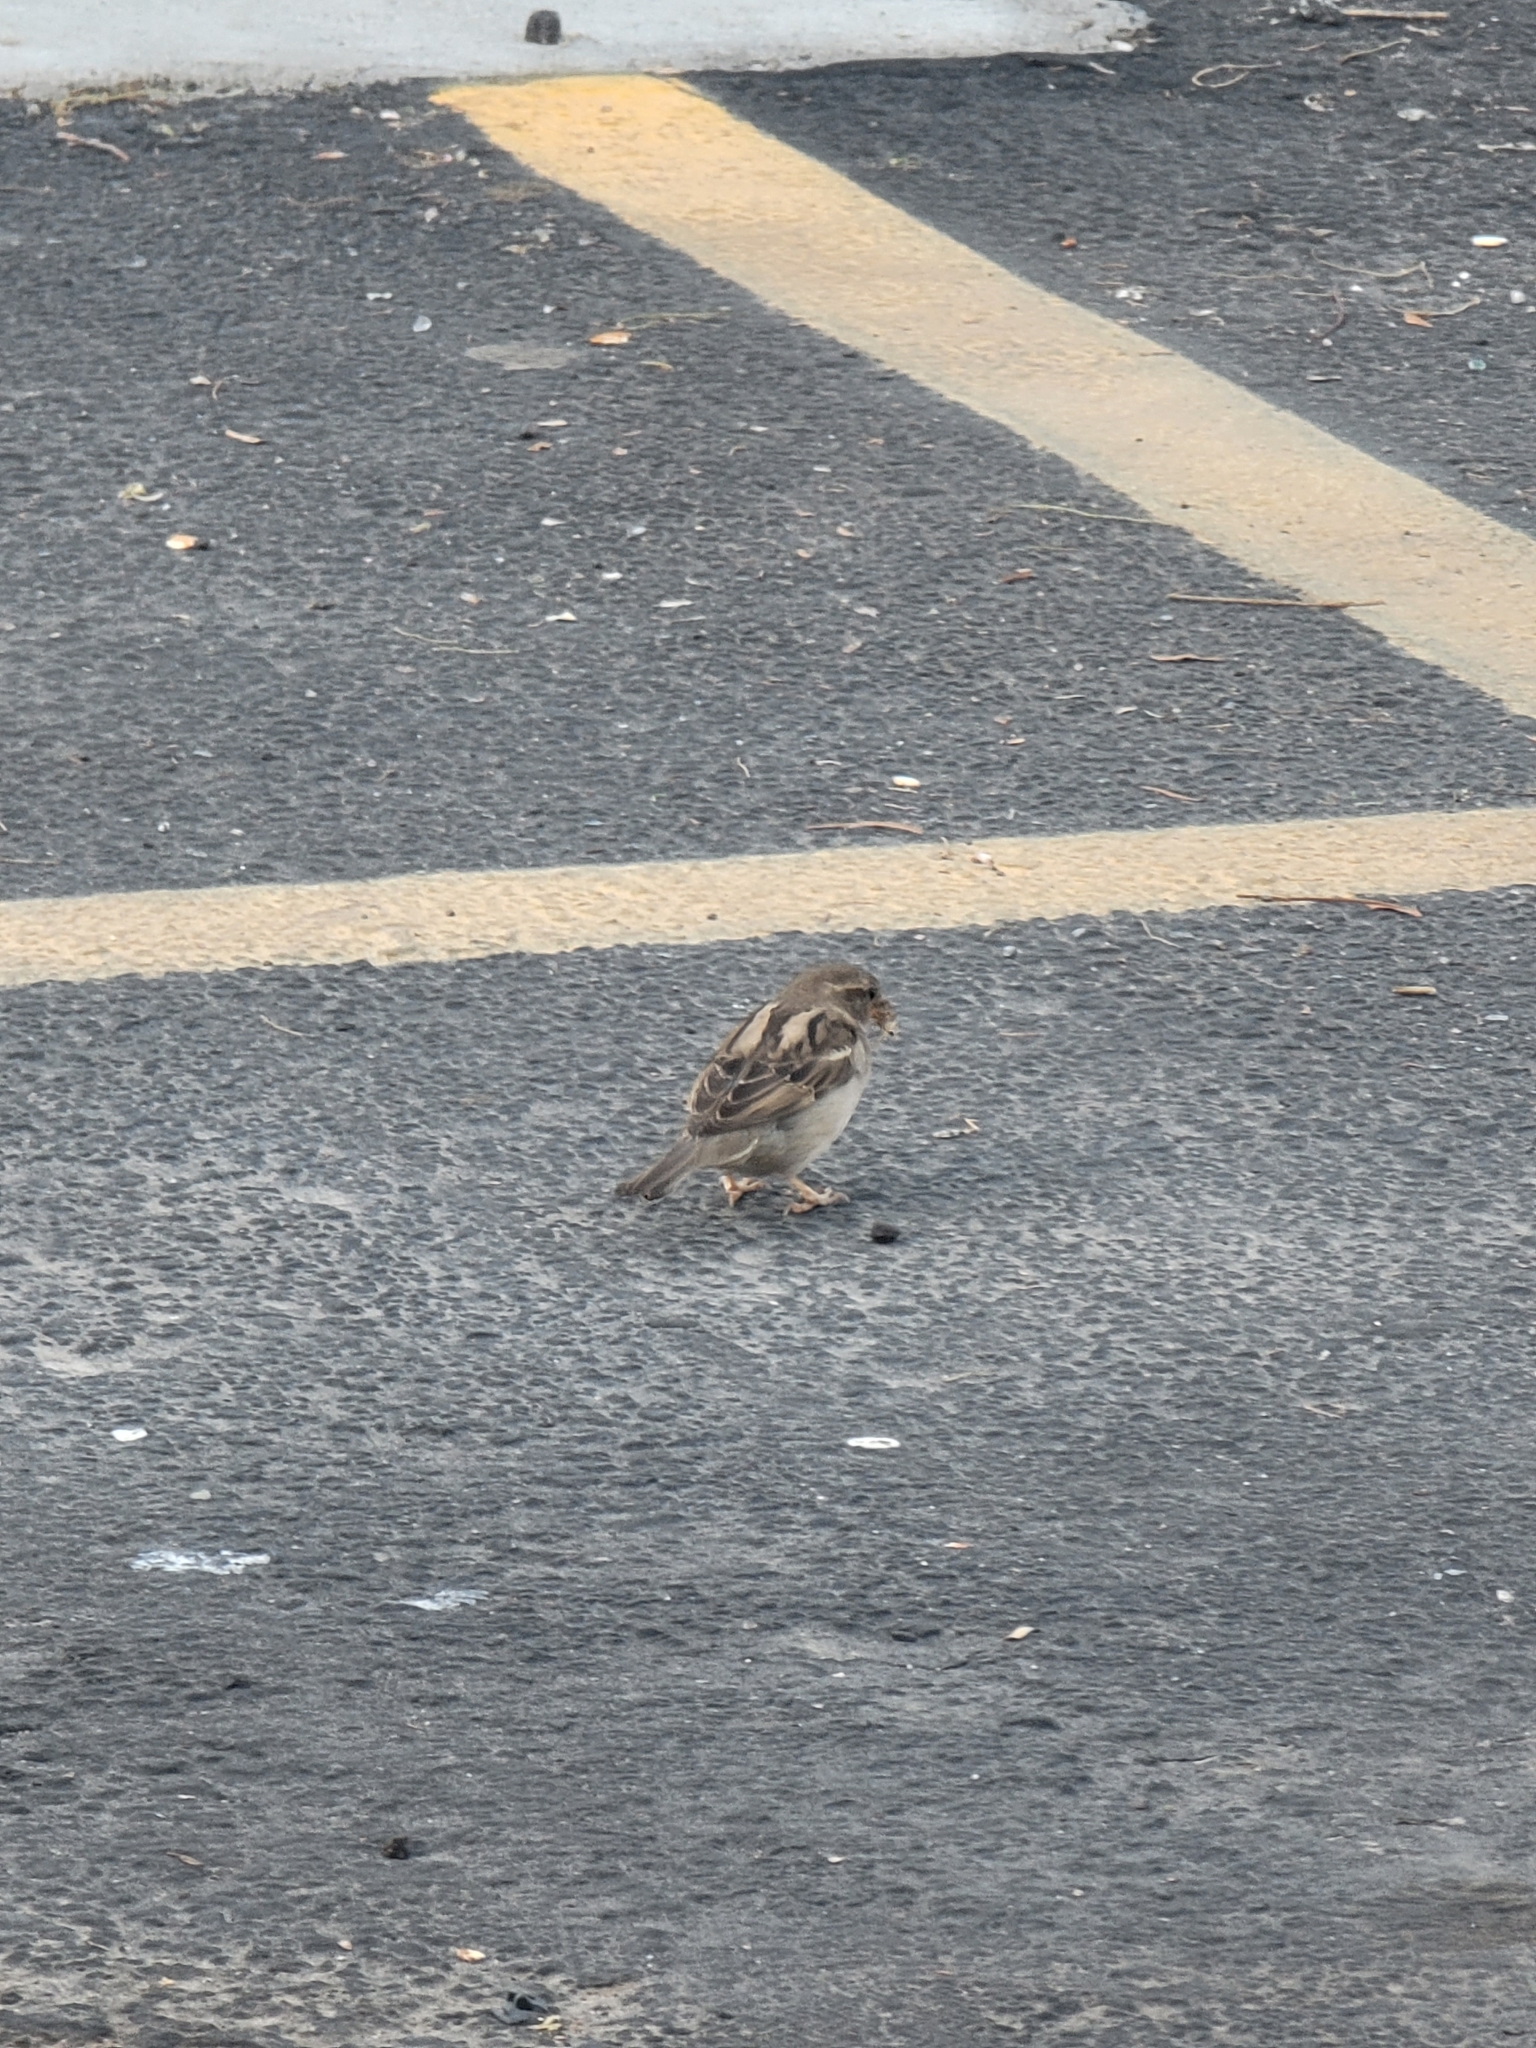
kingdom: Animalia
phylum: Chordata
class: Aves
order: Passeriformes
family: Passeridae
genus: Passer
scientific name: Passer domesticus
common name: House sparrow
